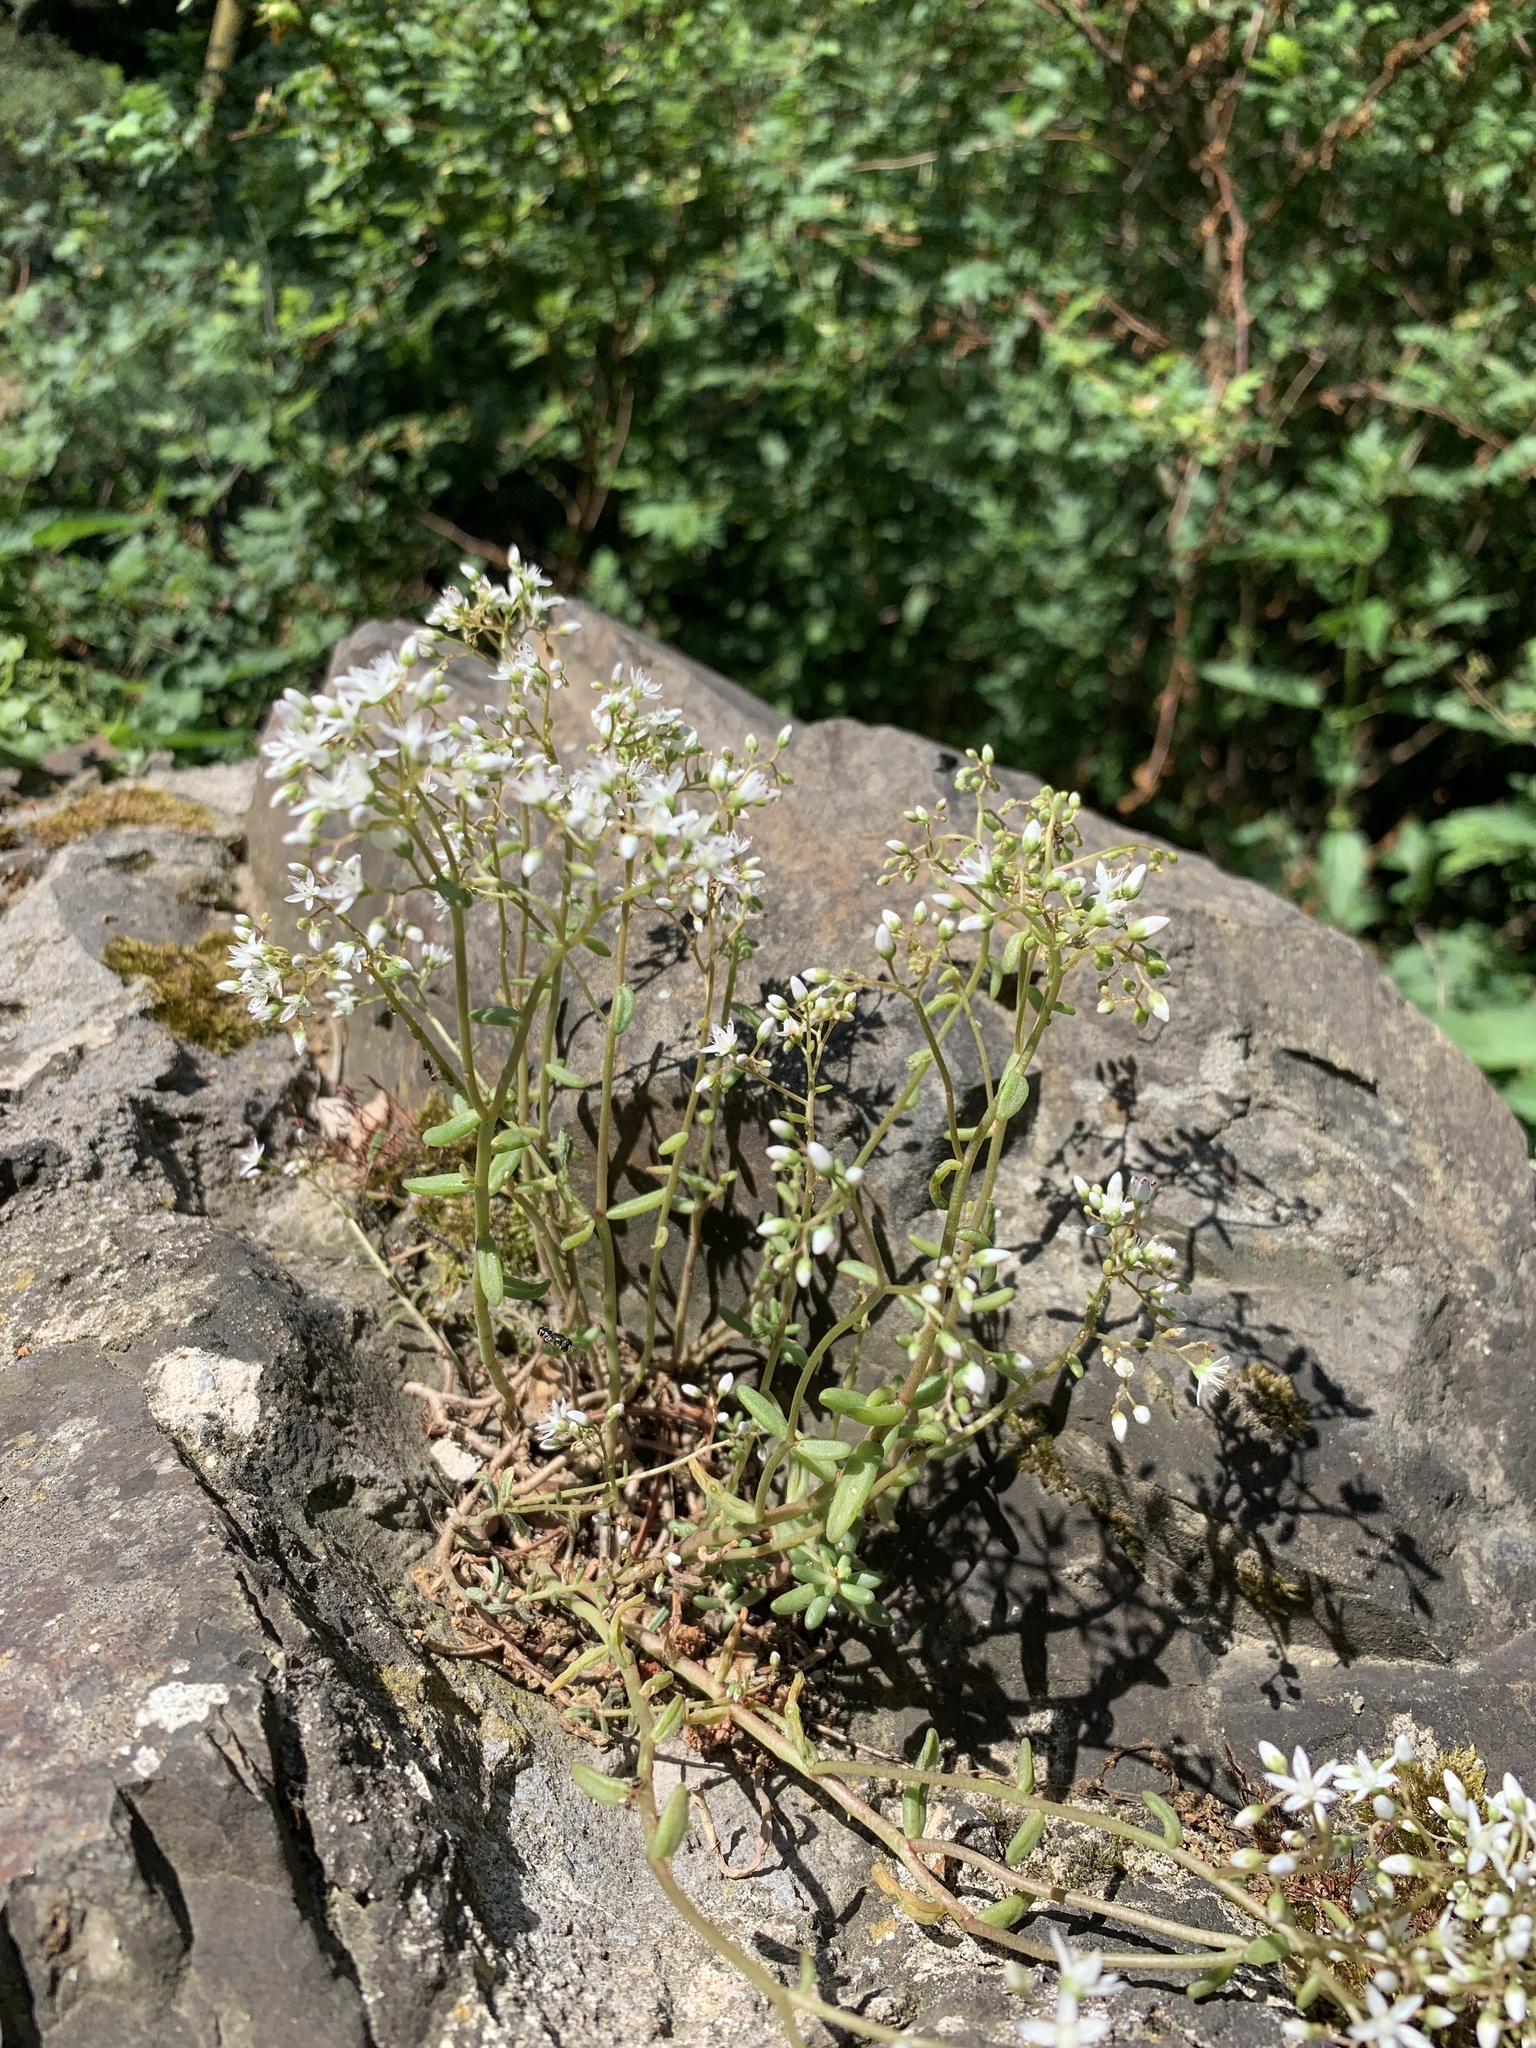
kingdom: Plantae
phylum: Tracheophyta
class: Magnoliopsida
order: Saxifragales
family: Crassulaceae
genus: Sedum
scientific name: Sedum album
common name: White stonecrop
